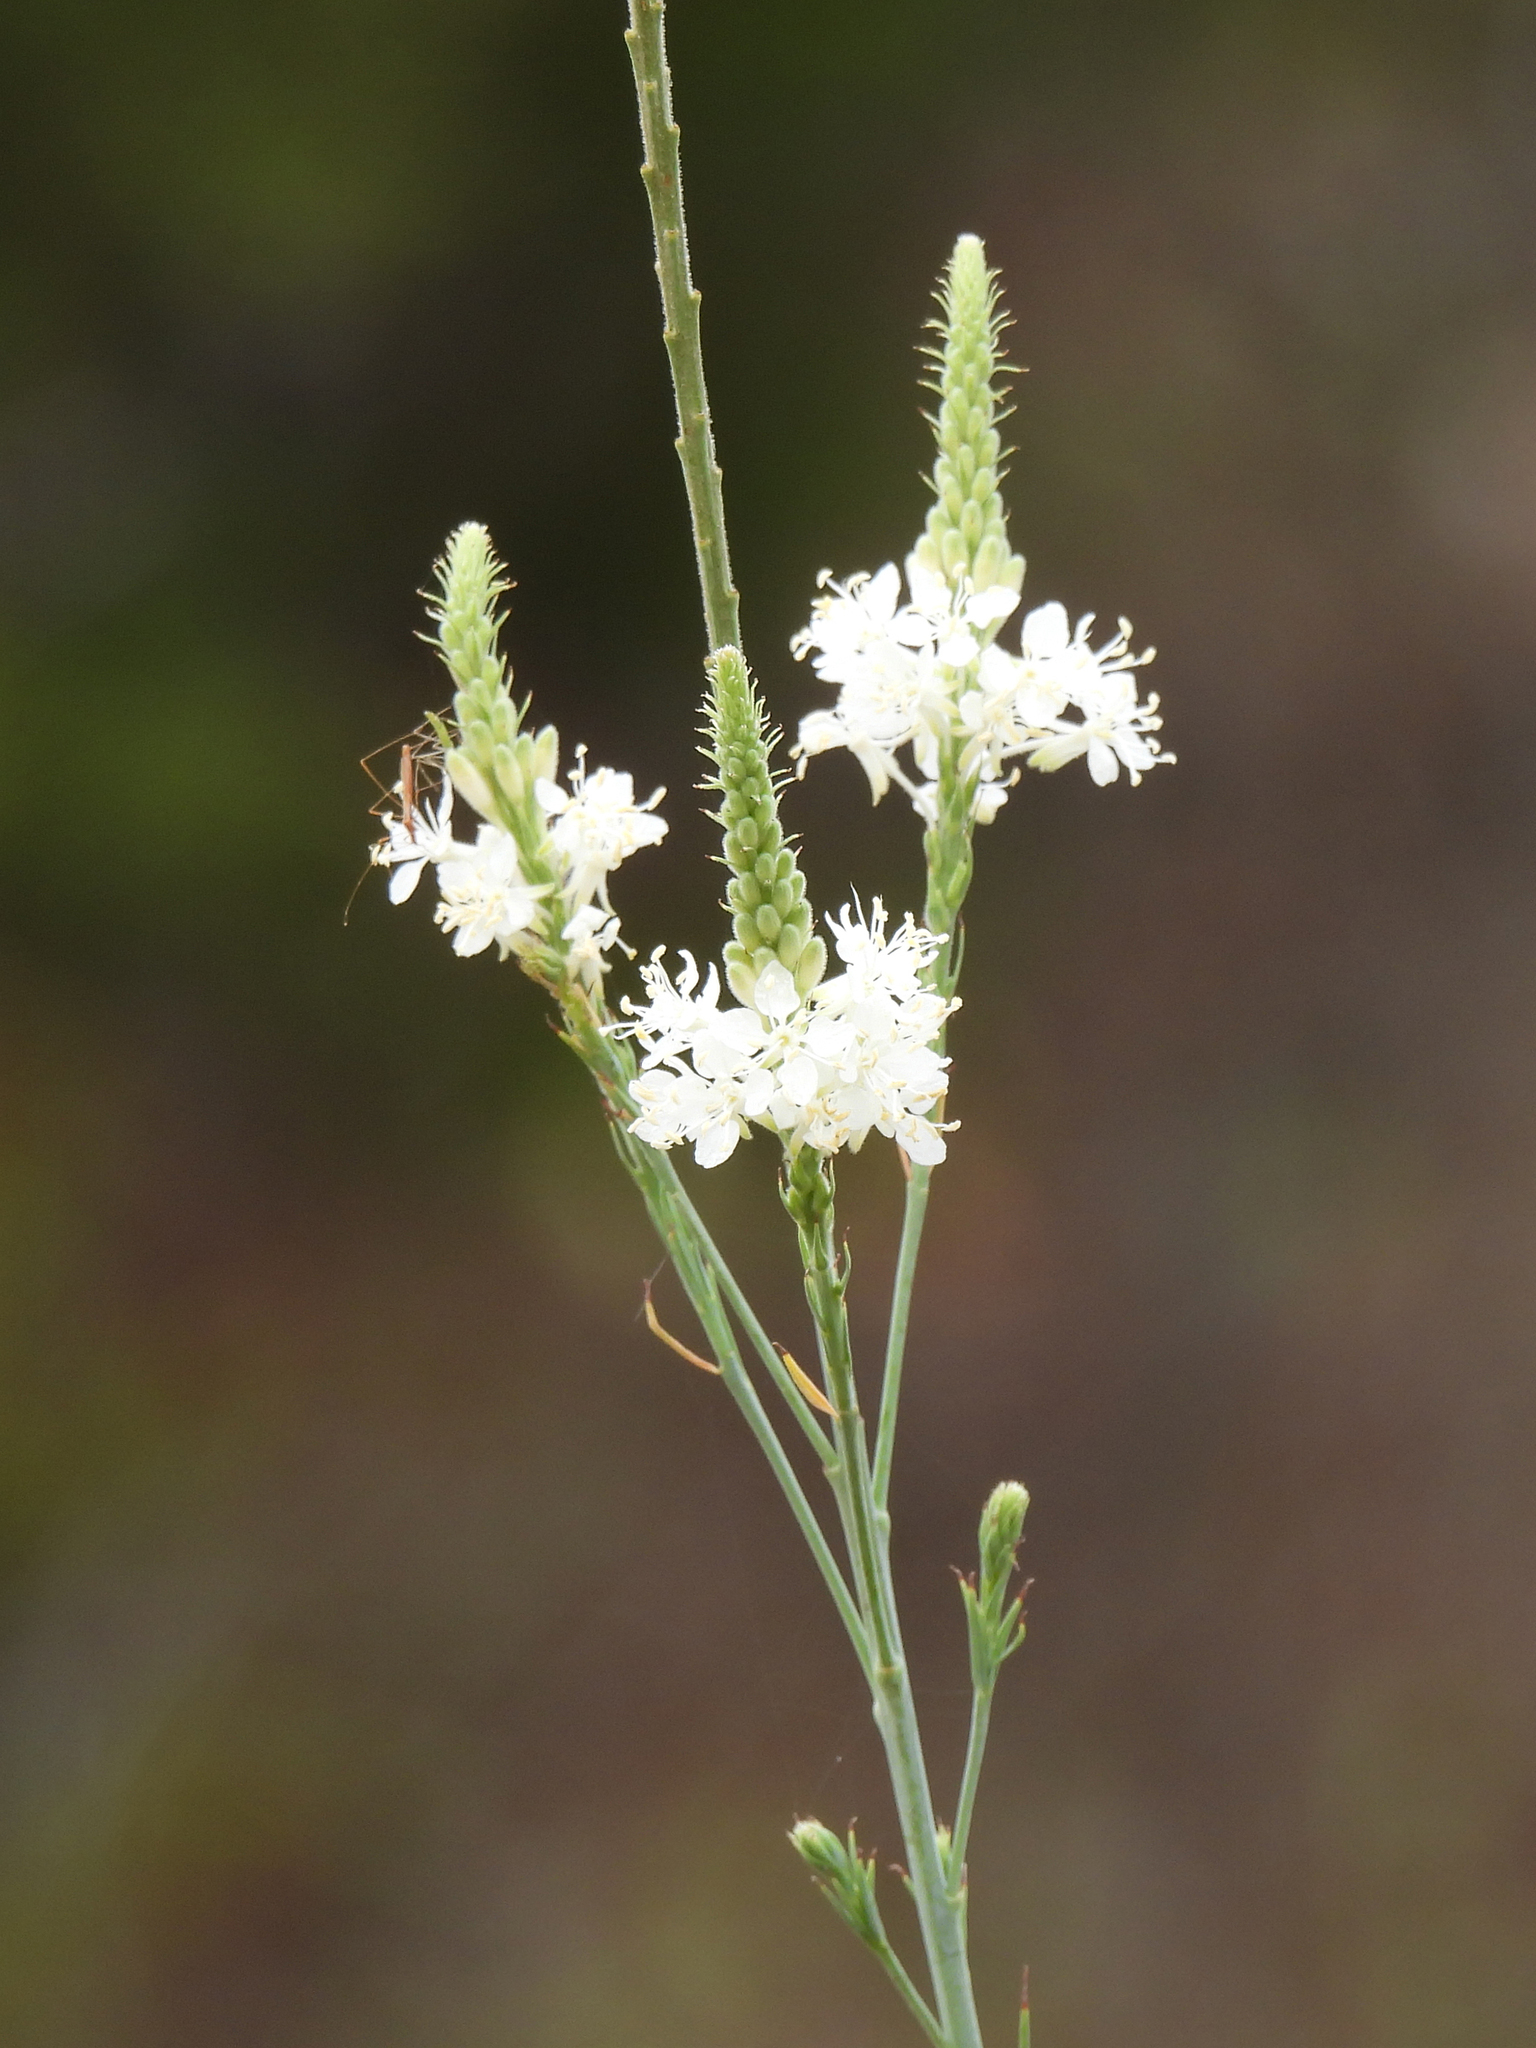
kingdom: Plantae
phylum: Tracheophyta
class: Magnoliopsida
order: Myrtales
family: Onagraceae
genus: Oenothera
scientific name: Oenothera glaucifolia
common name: False gaura
